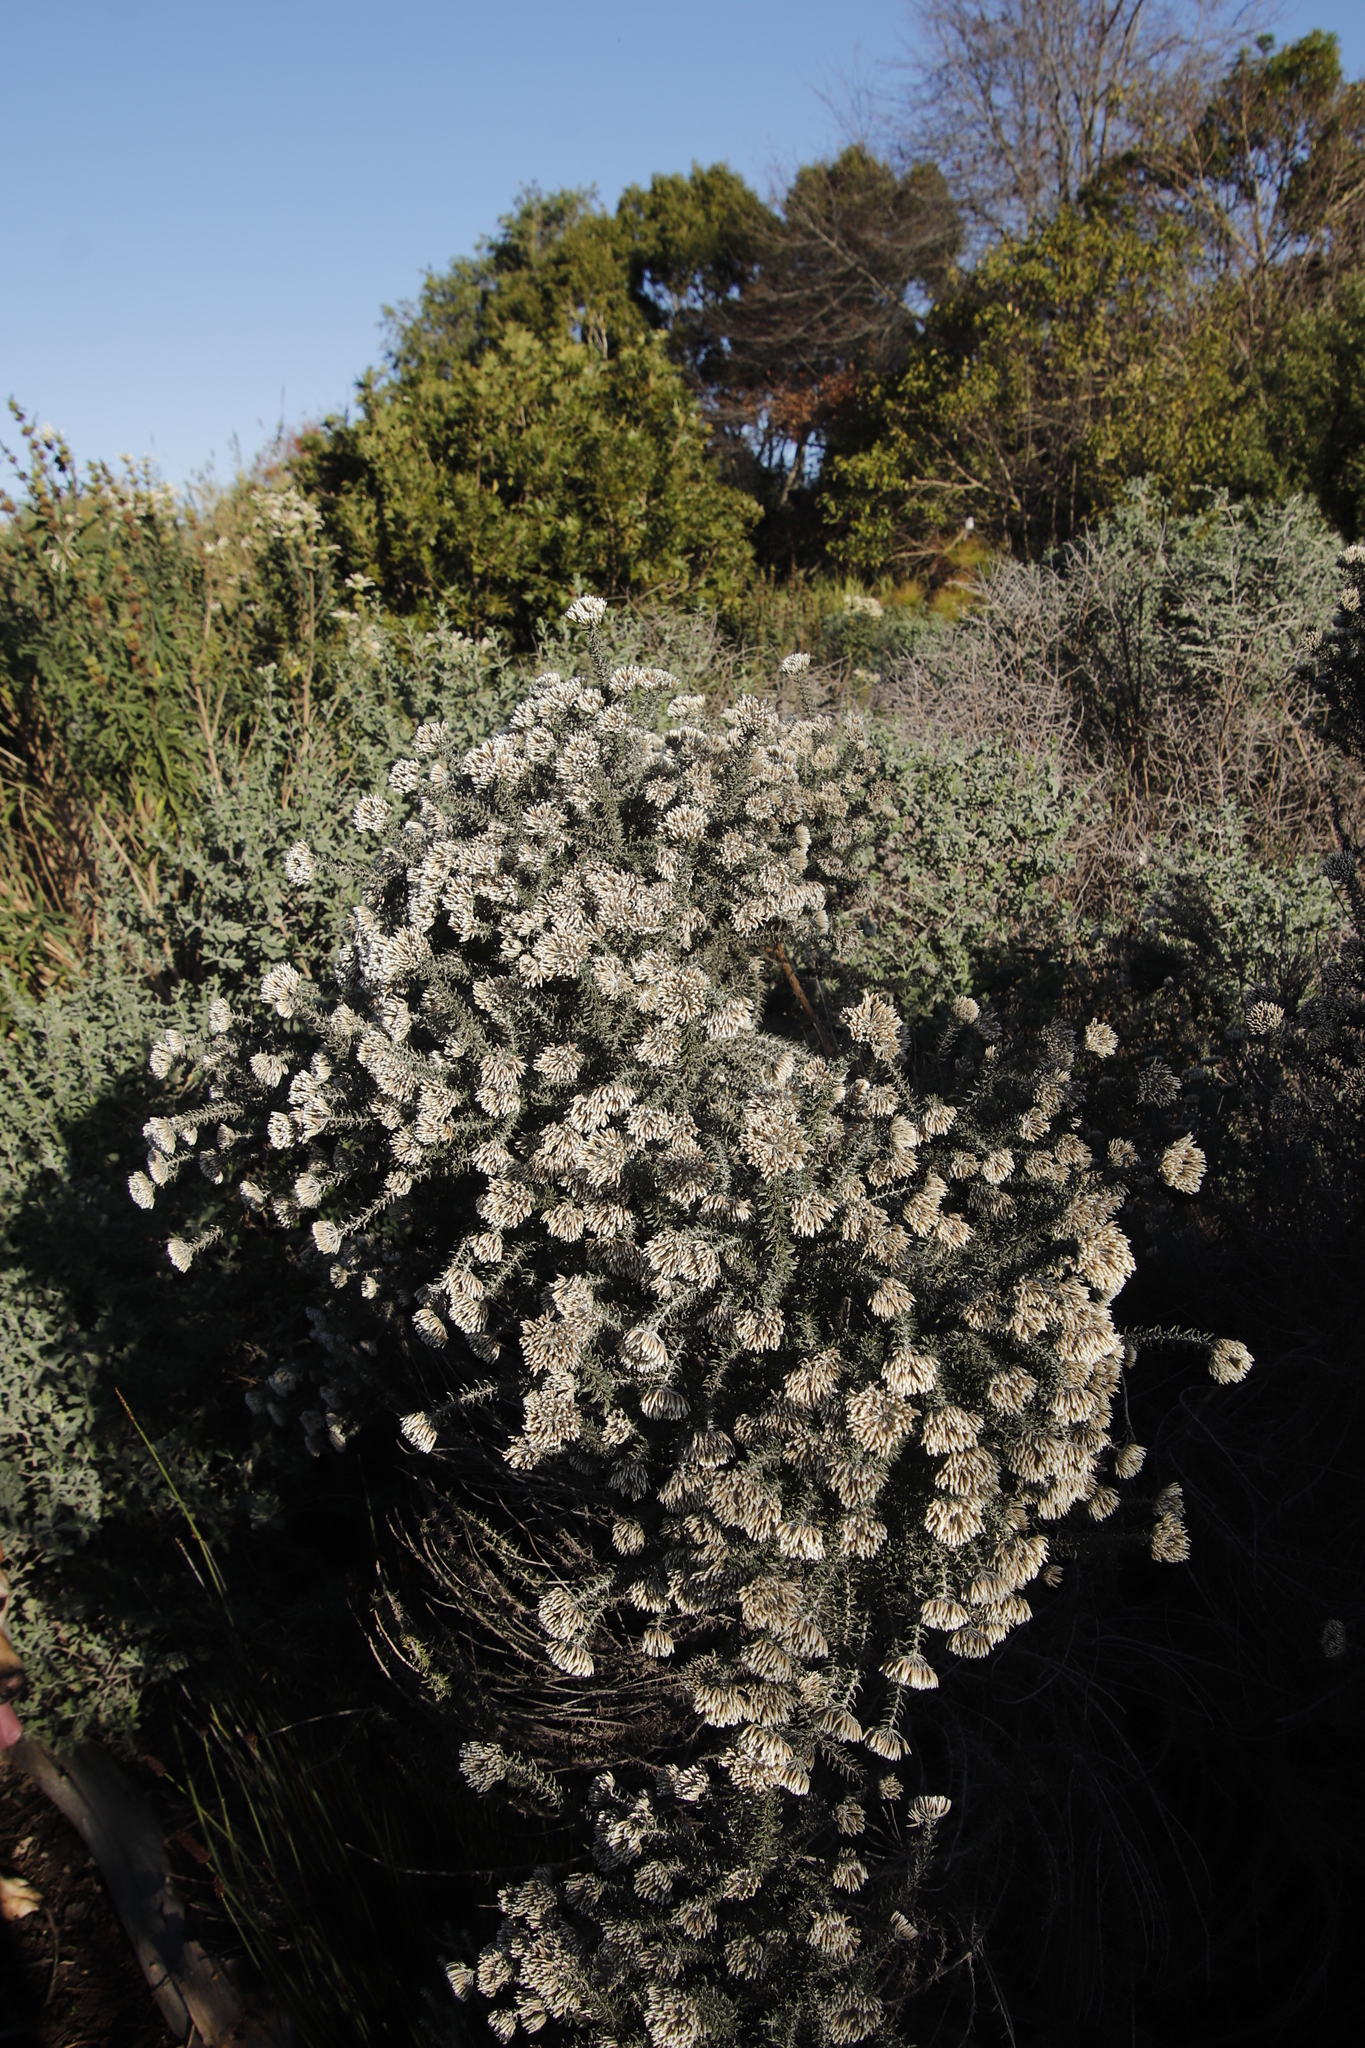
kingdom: Plantae
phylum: Tracheophyta
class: Magnoliopsida
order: Asterales
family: Asteraceae
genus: Metalasia
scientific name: Metalasia densa
